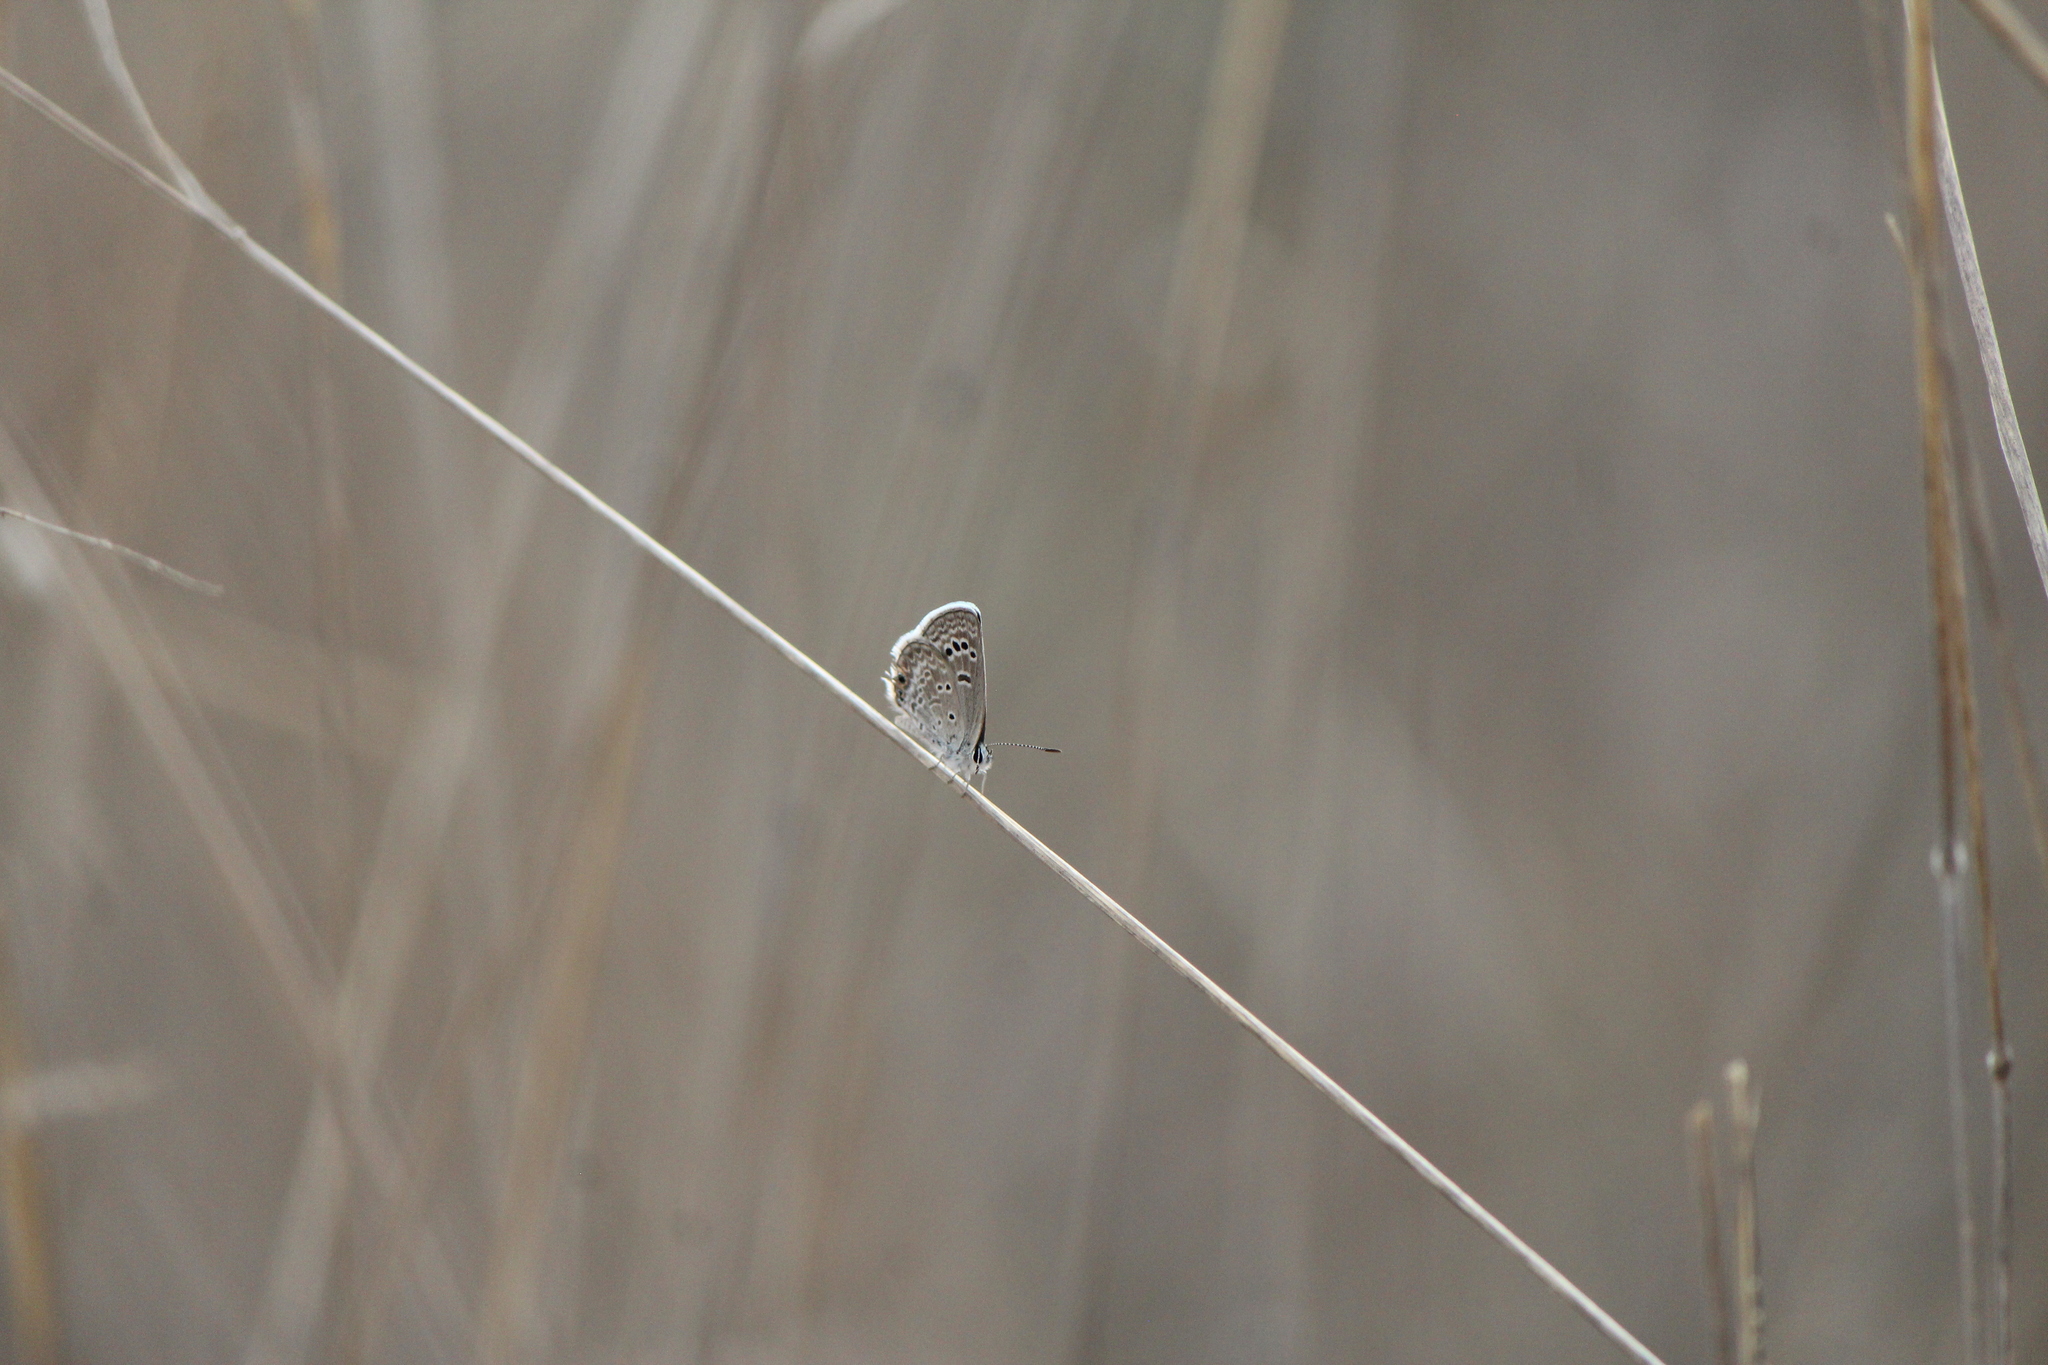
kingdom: Animalia
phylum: Arthropoda
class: Insecta
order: Lepidoptera
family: Lycaenidae
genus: Echinargus
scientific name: Echinargus isola
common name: Reakirt's blue
